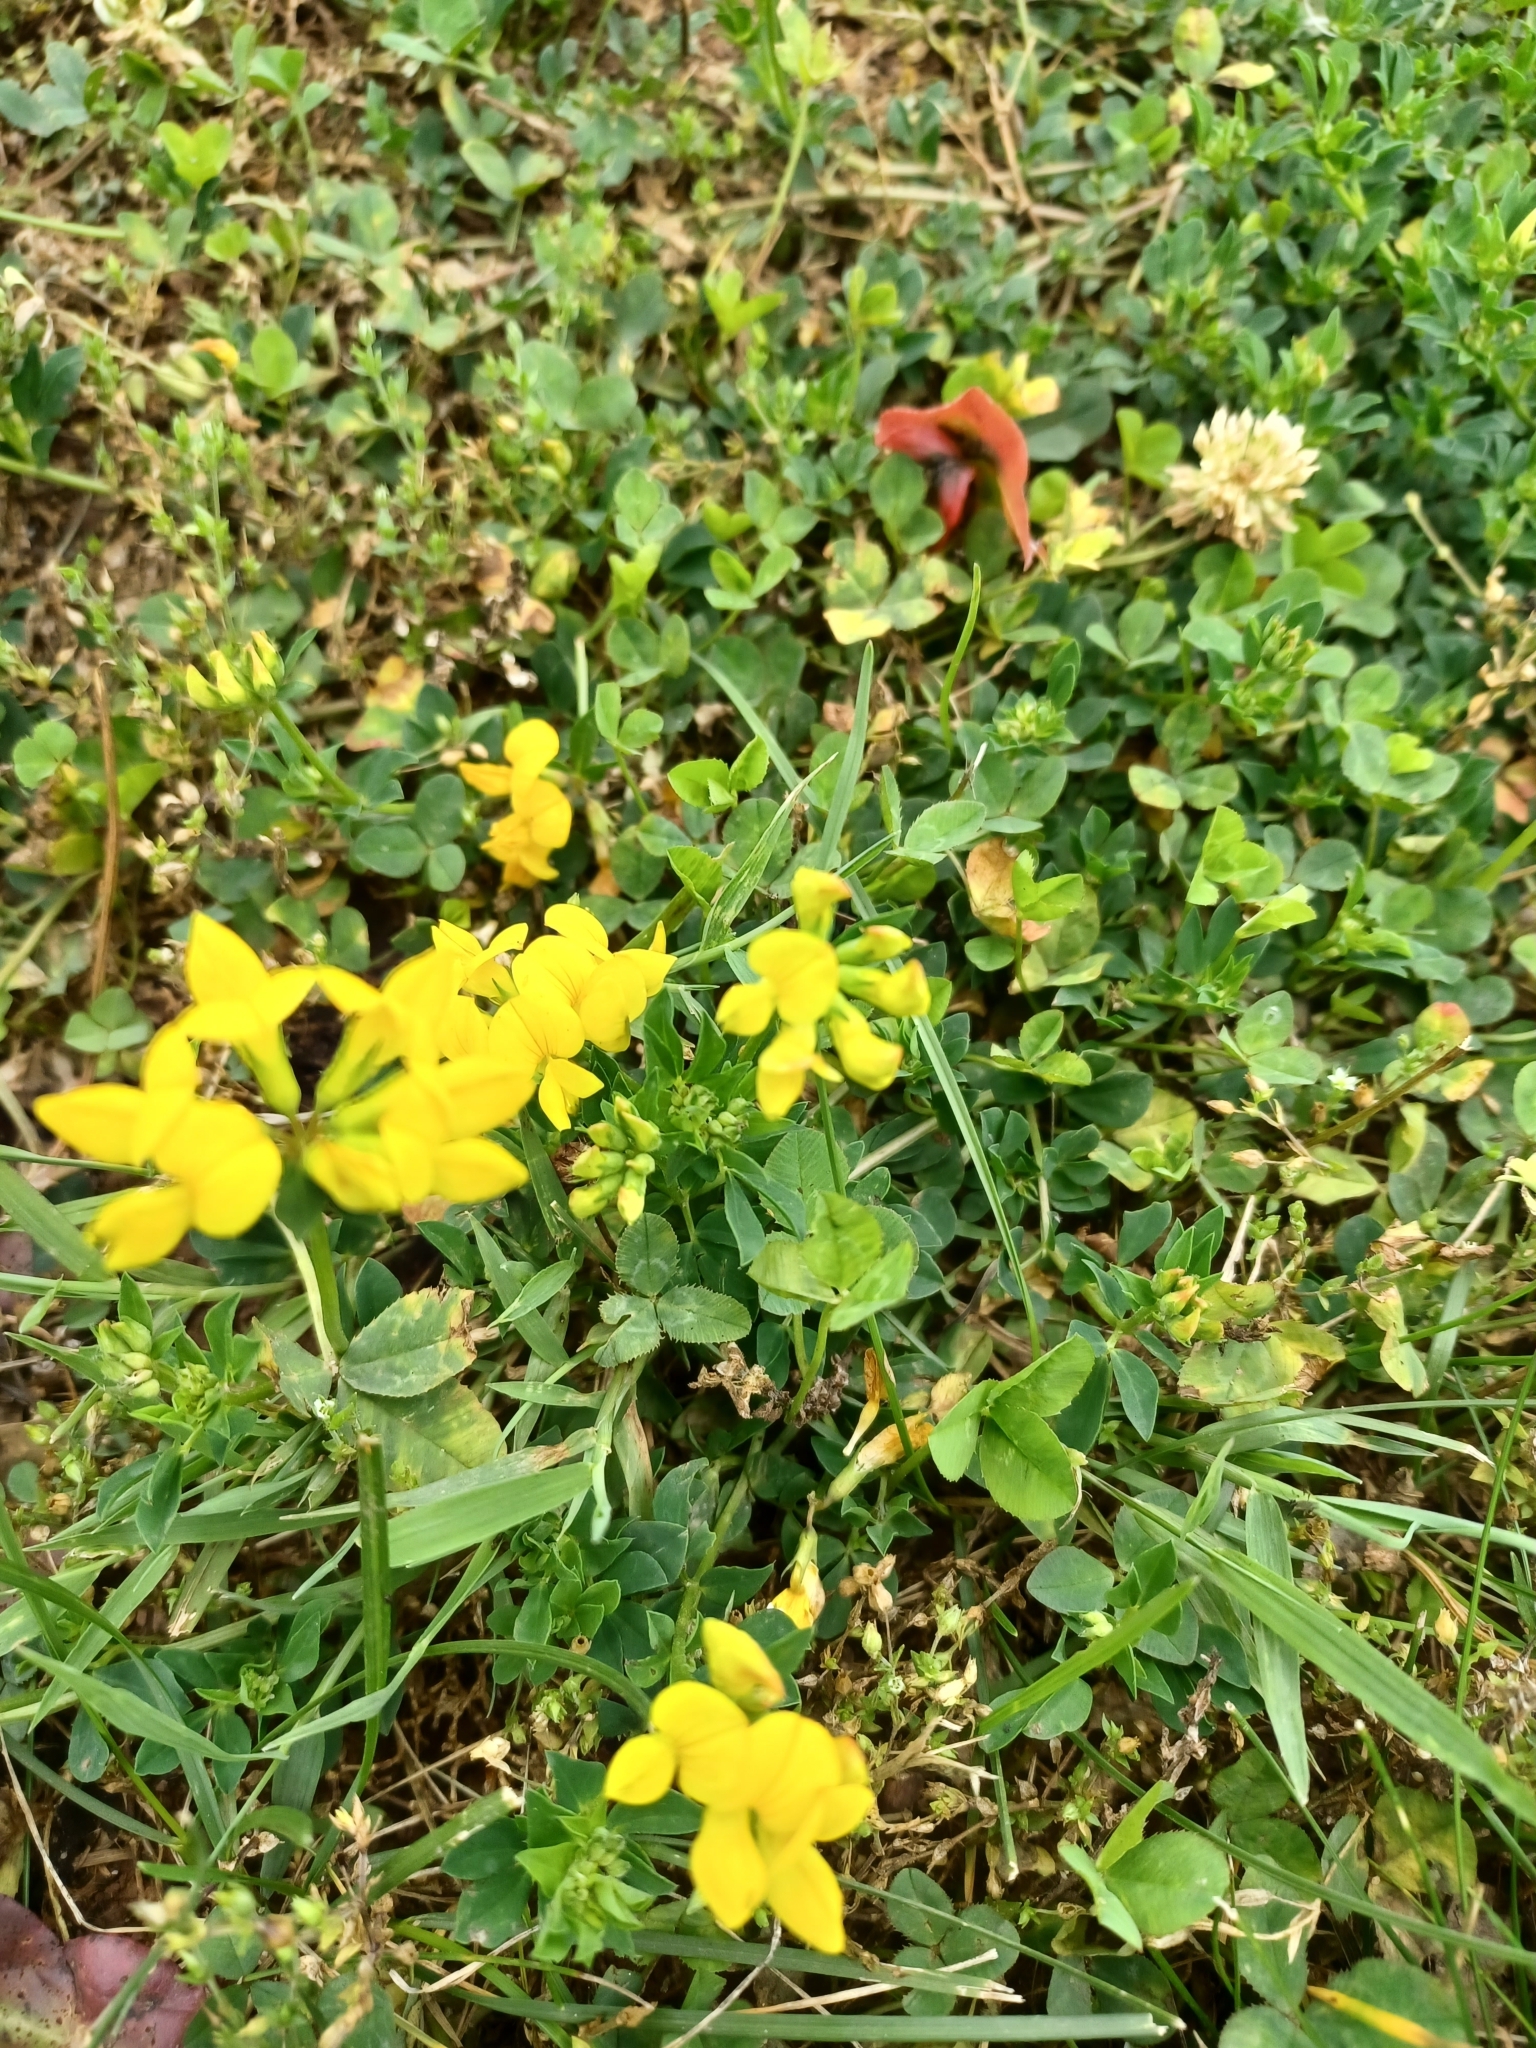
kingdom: Plantae
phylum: Tracheophyta
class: Magnoliopsida
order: Fabales
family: Fabaceae
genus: Lotus
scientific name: Lotus corniculatus
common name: Common bird's-foot-trefoil
